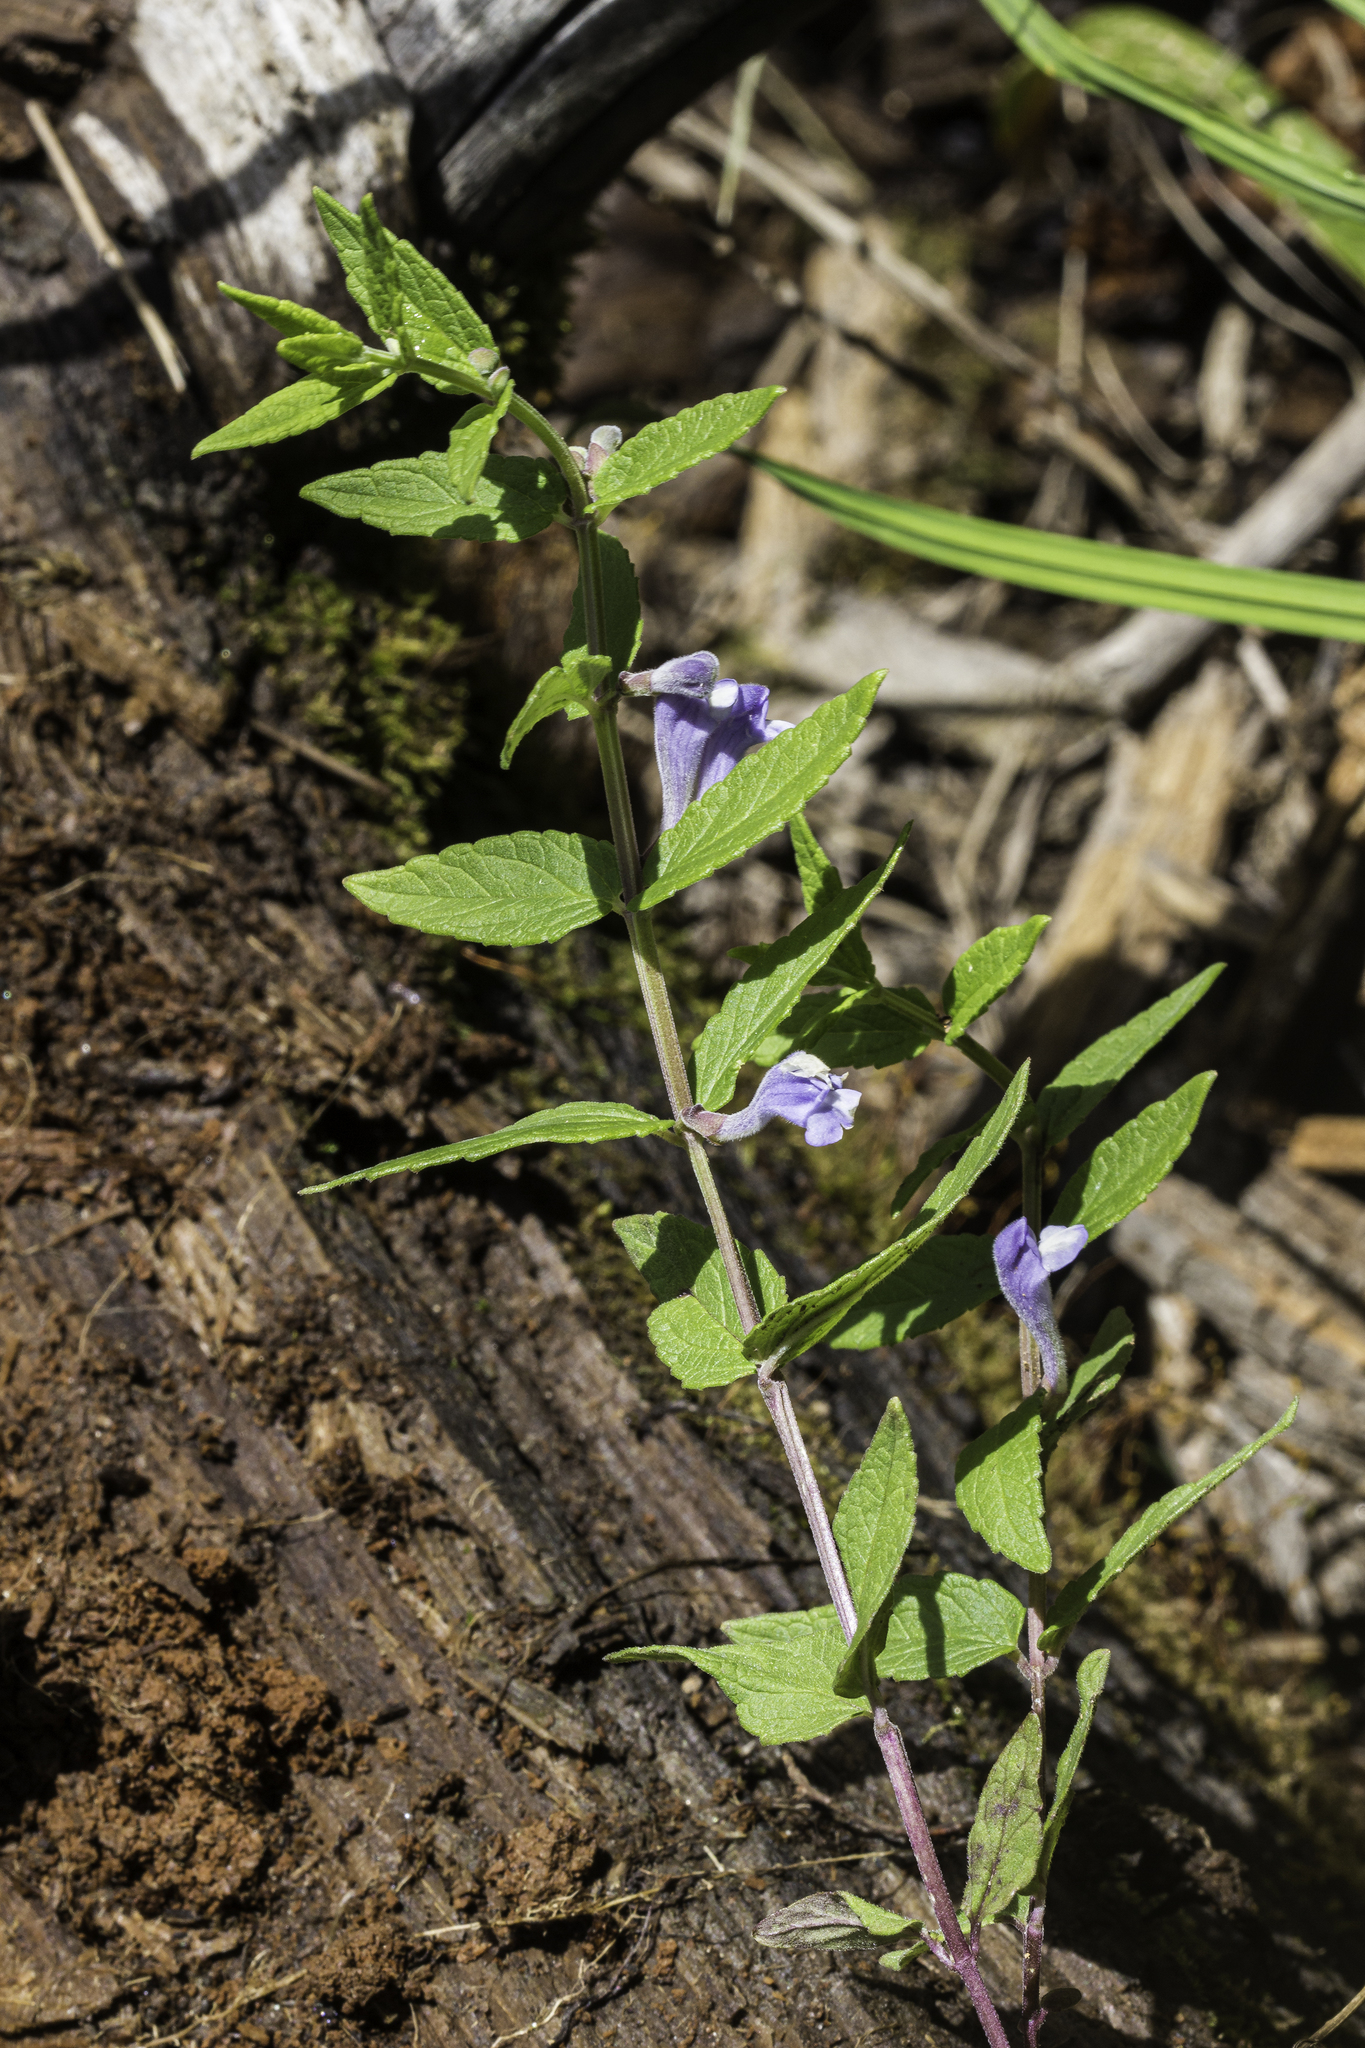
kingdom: Plantae
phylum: Tracheophyta
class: Magnoliopsida
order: Lamiales
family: Lamiaceae
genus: Scutellaria
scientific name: Scutellaria galericulata
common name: Skullcap
